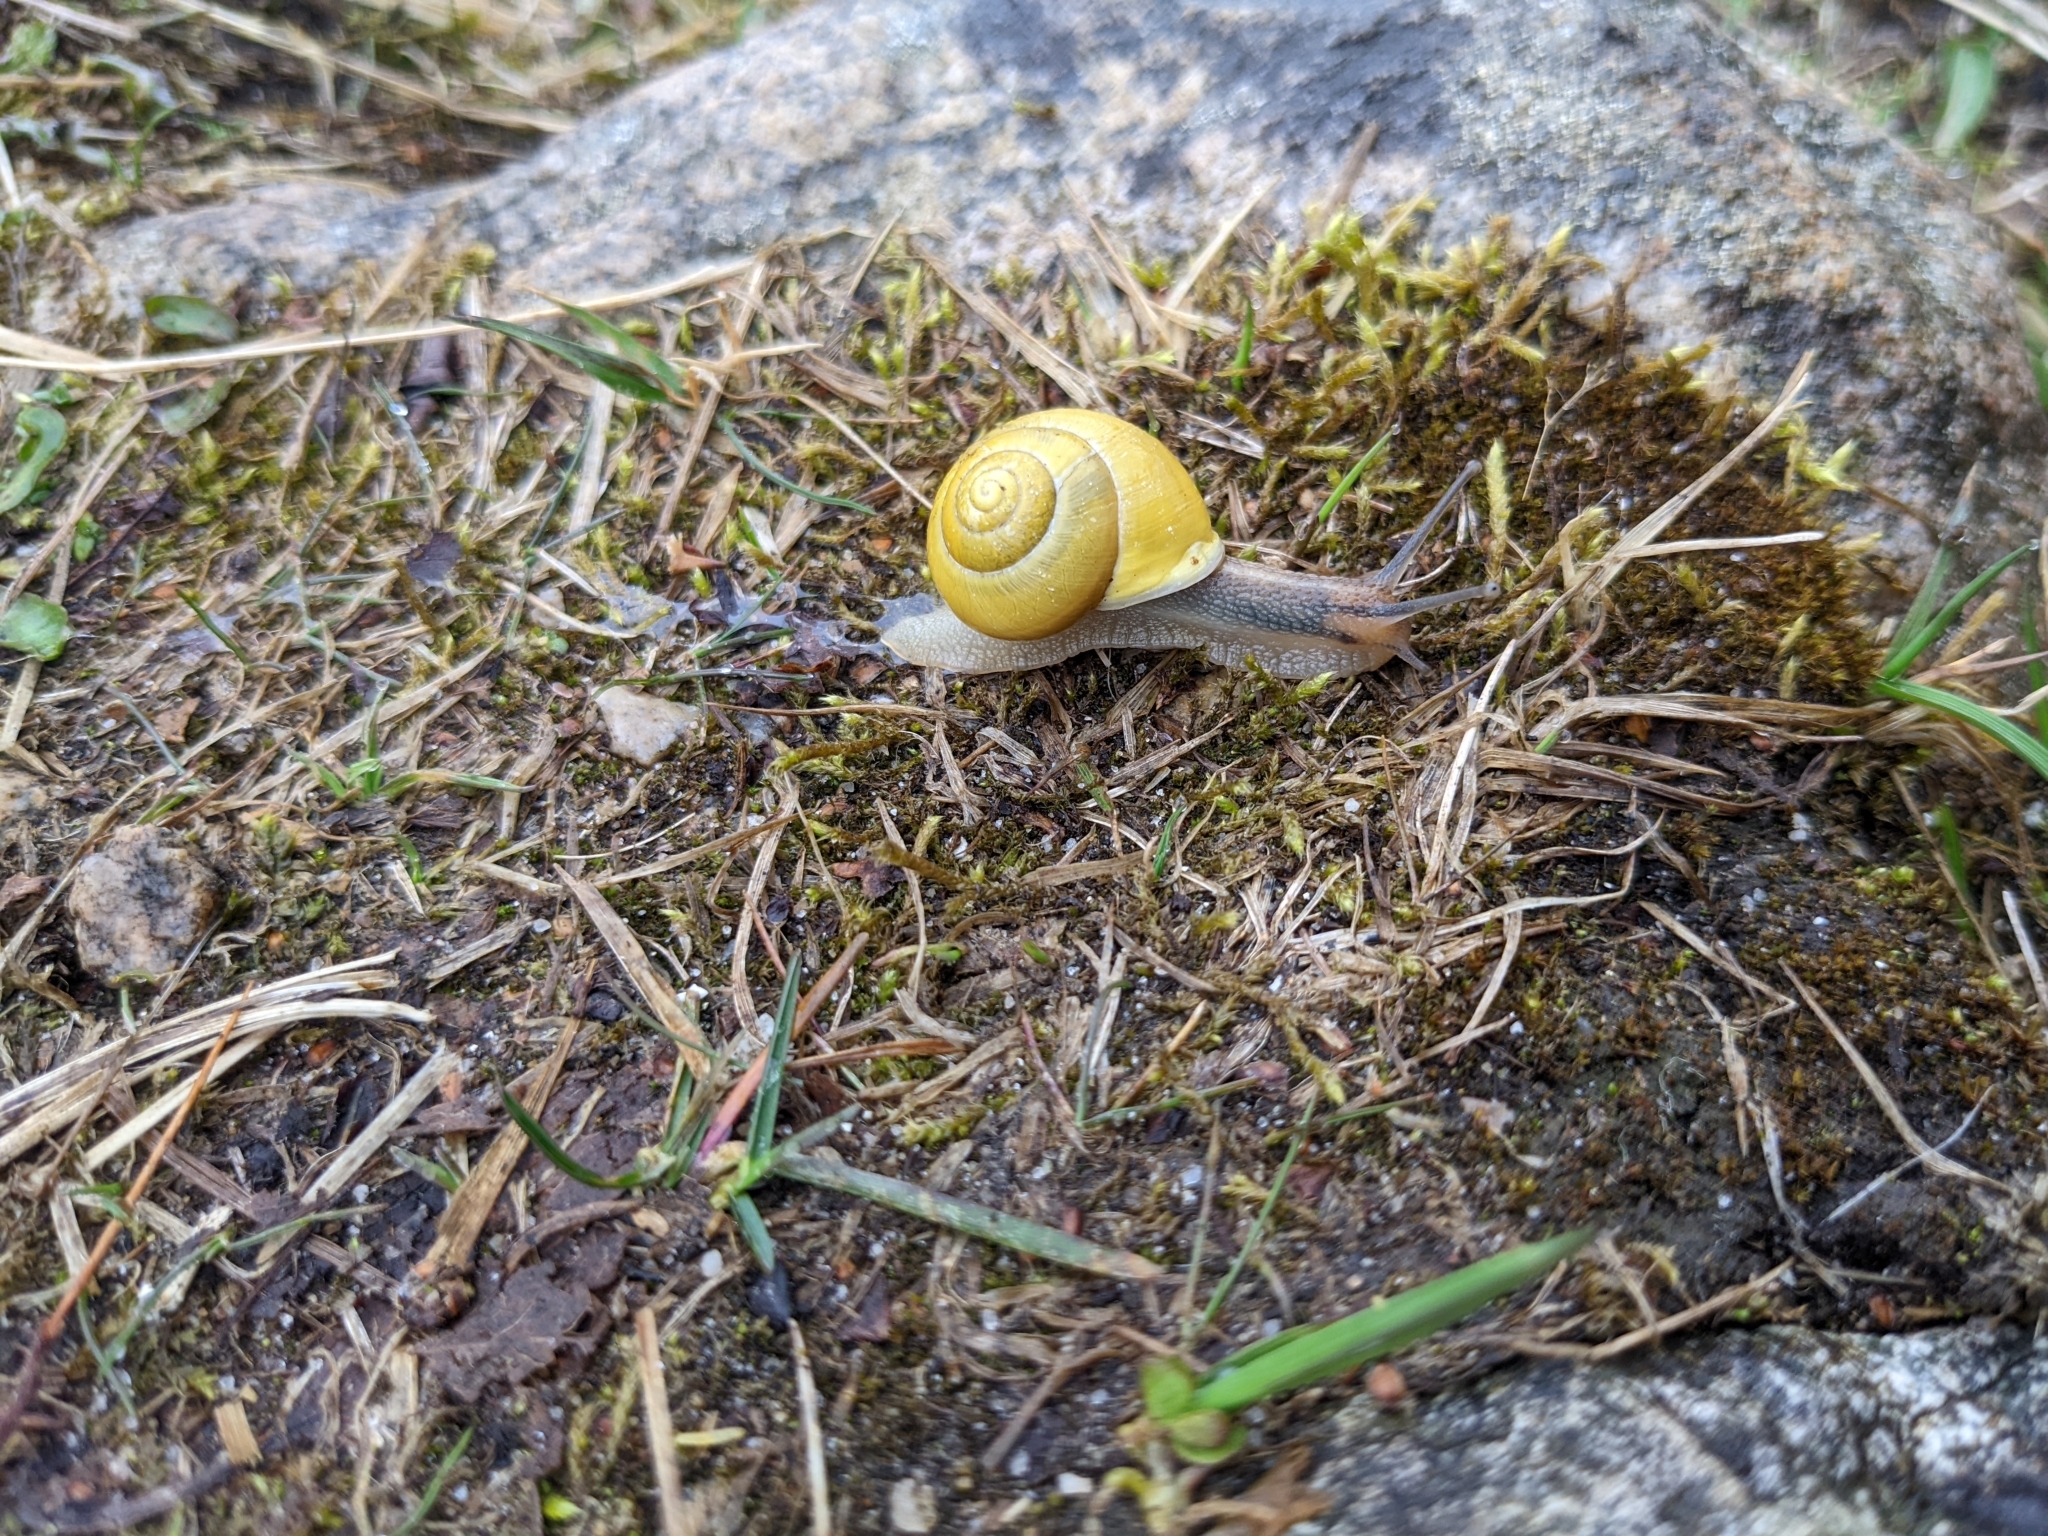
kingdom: Animalia
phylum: Mollusca
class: Gastropoda
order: Stylommatophora
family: Helicidae
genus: Cepaea
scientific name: Cepaea hortensis
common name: White-lip gardensnail
